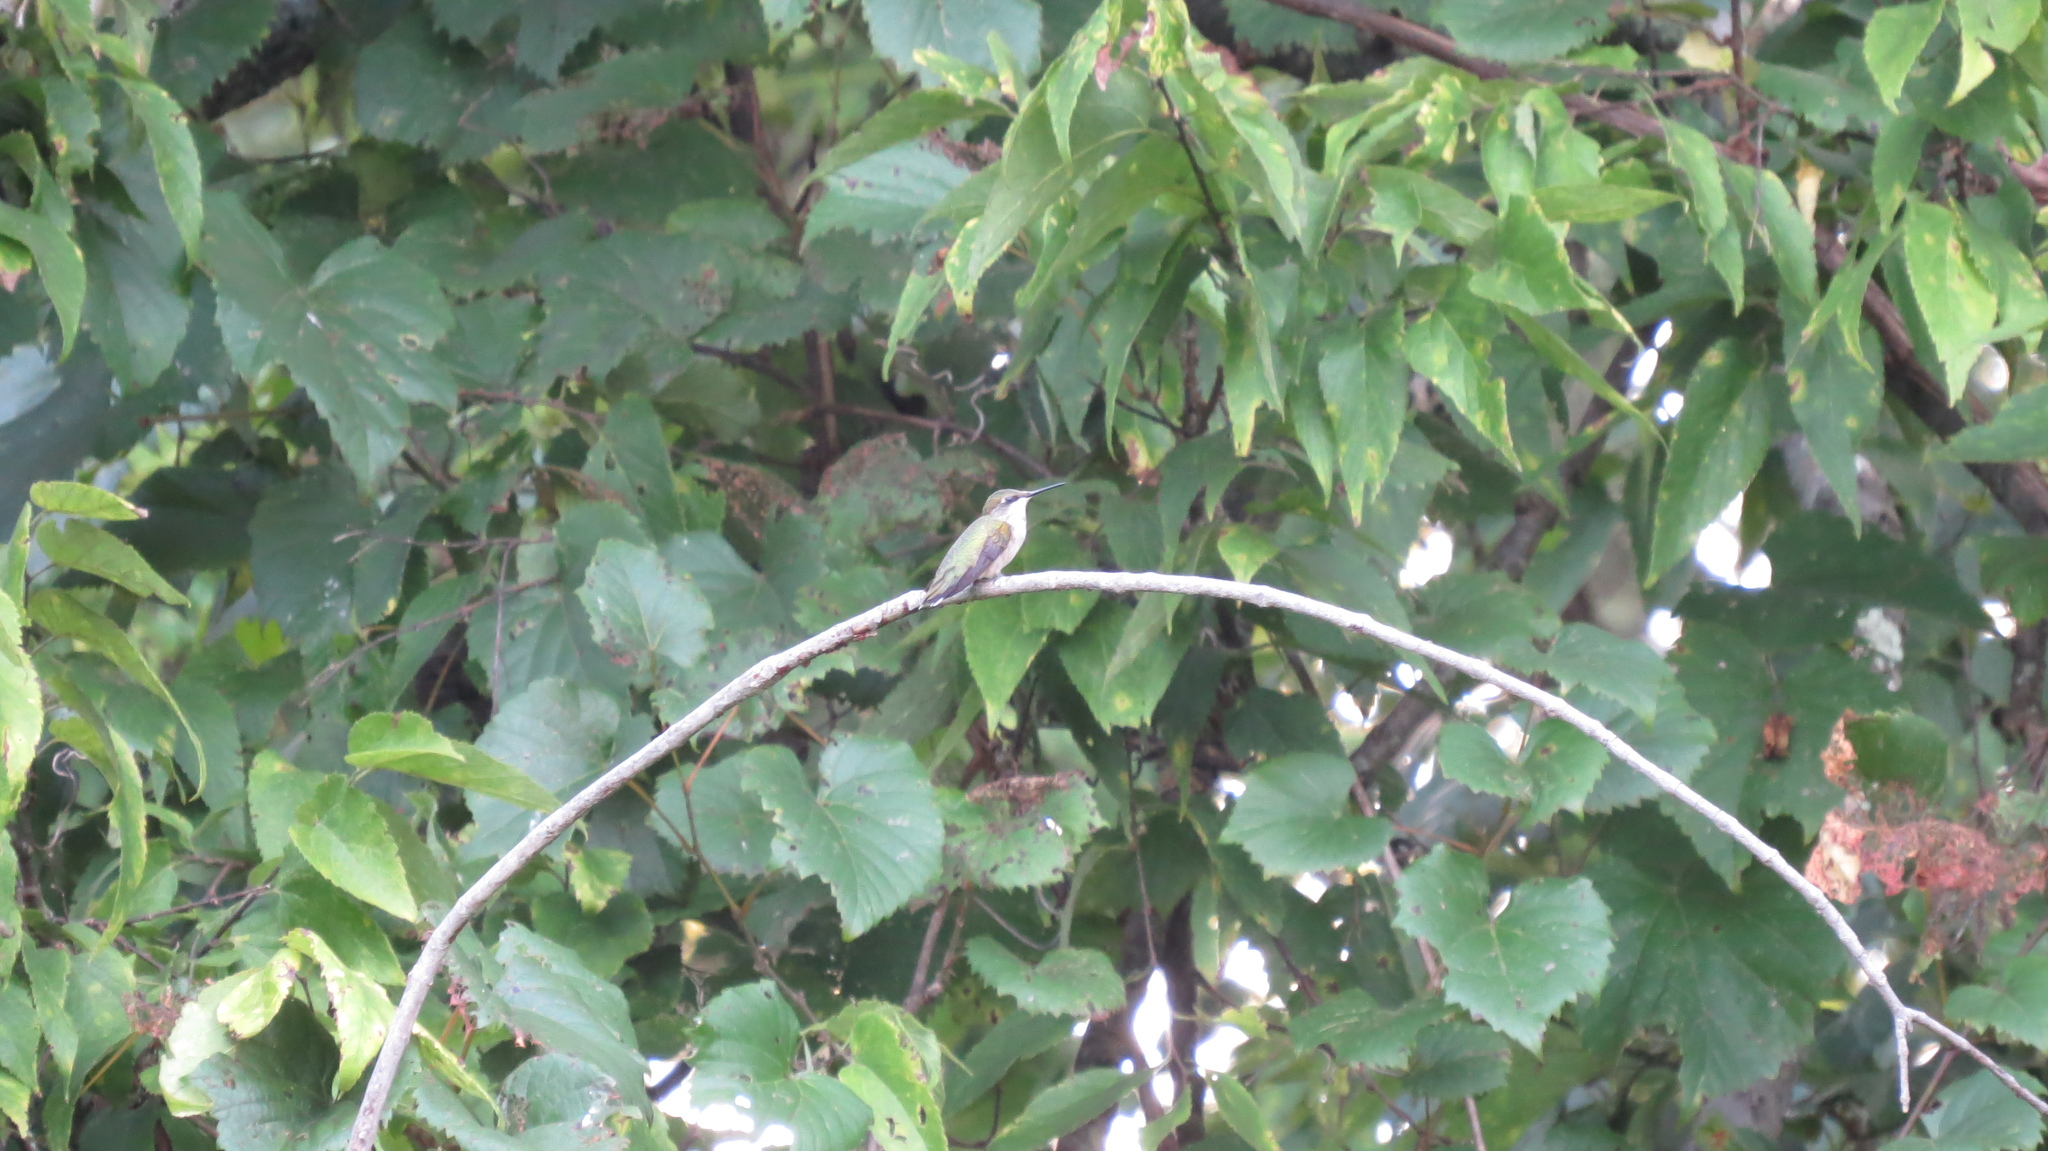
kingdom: Animalia
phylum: Chordata
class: Aves
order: Apodiformes
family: Trochilidae
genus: Archilochus
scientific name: Archilochus colubris
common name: Ruby-throated hummingbird
